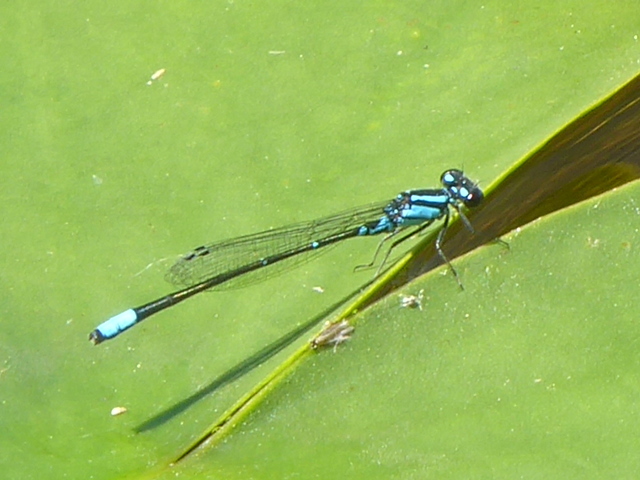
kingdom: Animalia
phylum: Arthropoda
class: Insecta
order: Odonata
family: Coenagrionidae
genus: Enallagma
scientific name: Enallagma geminatum
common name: Skimming bluet
